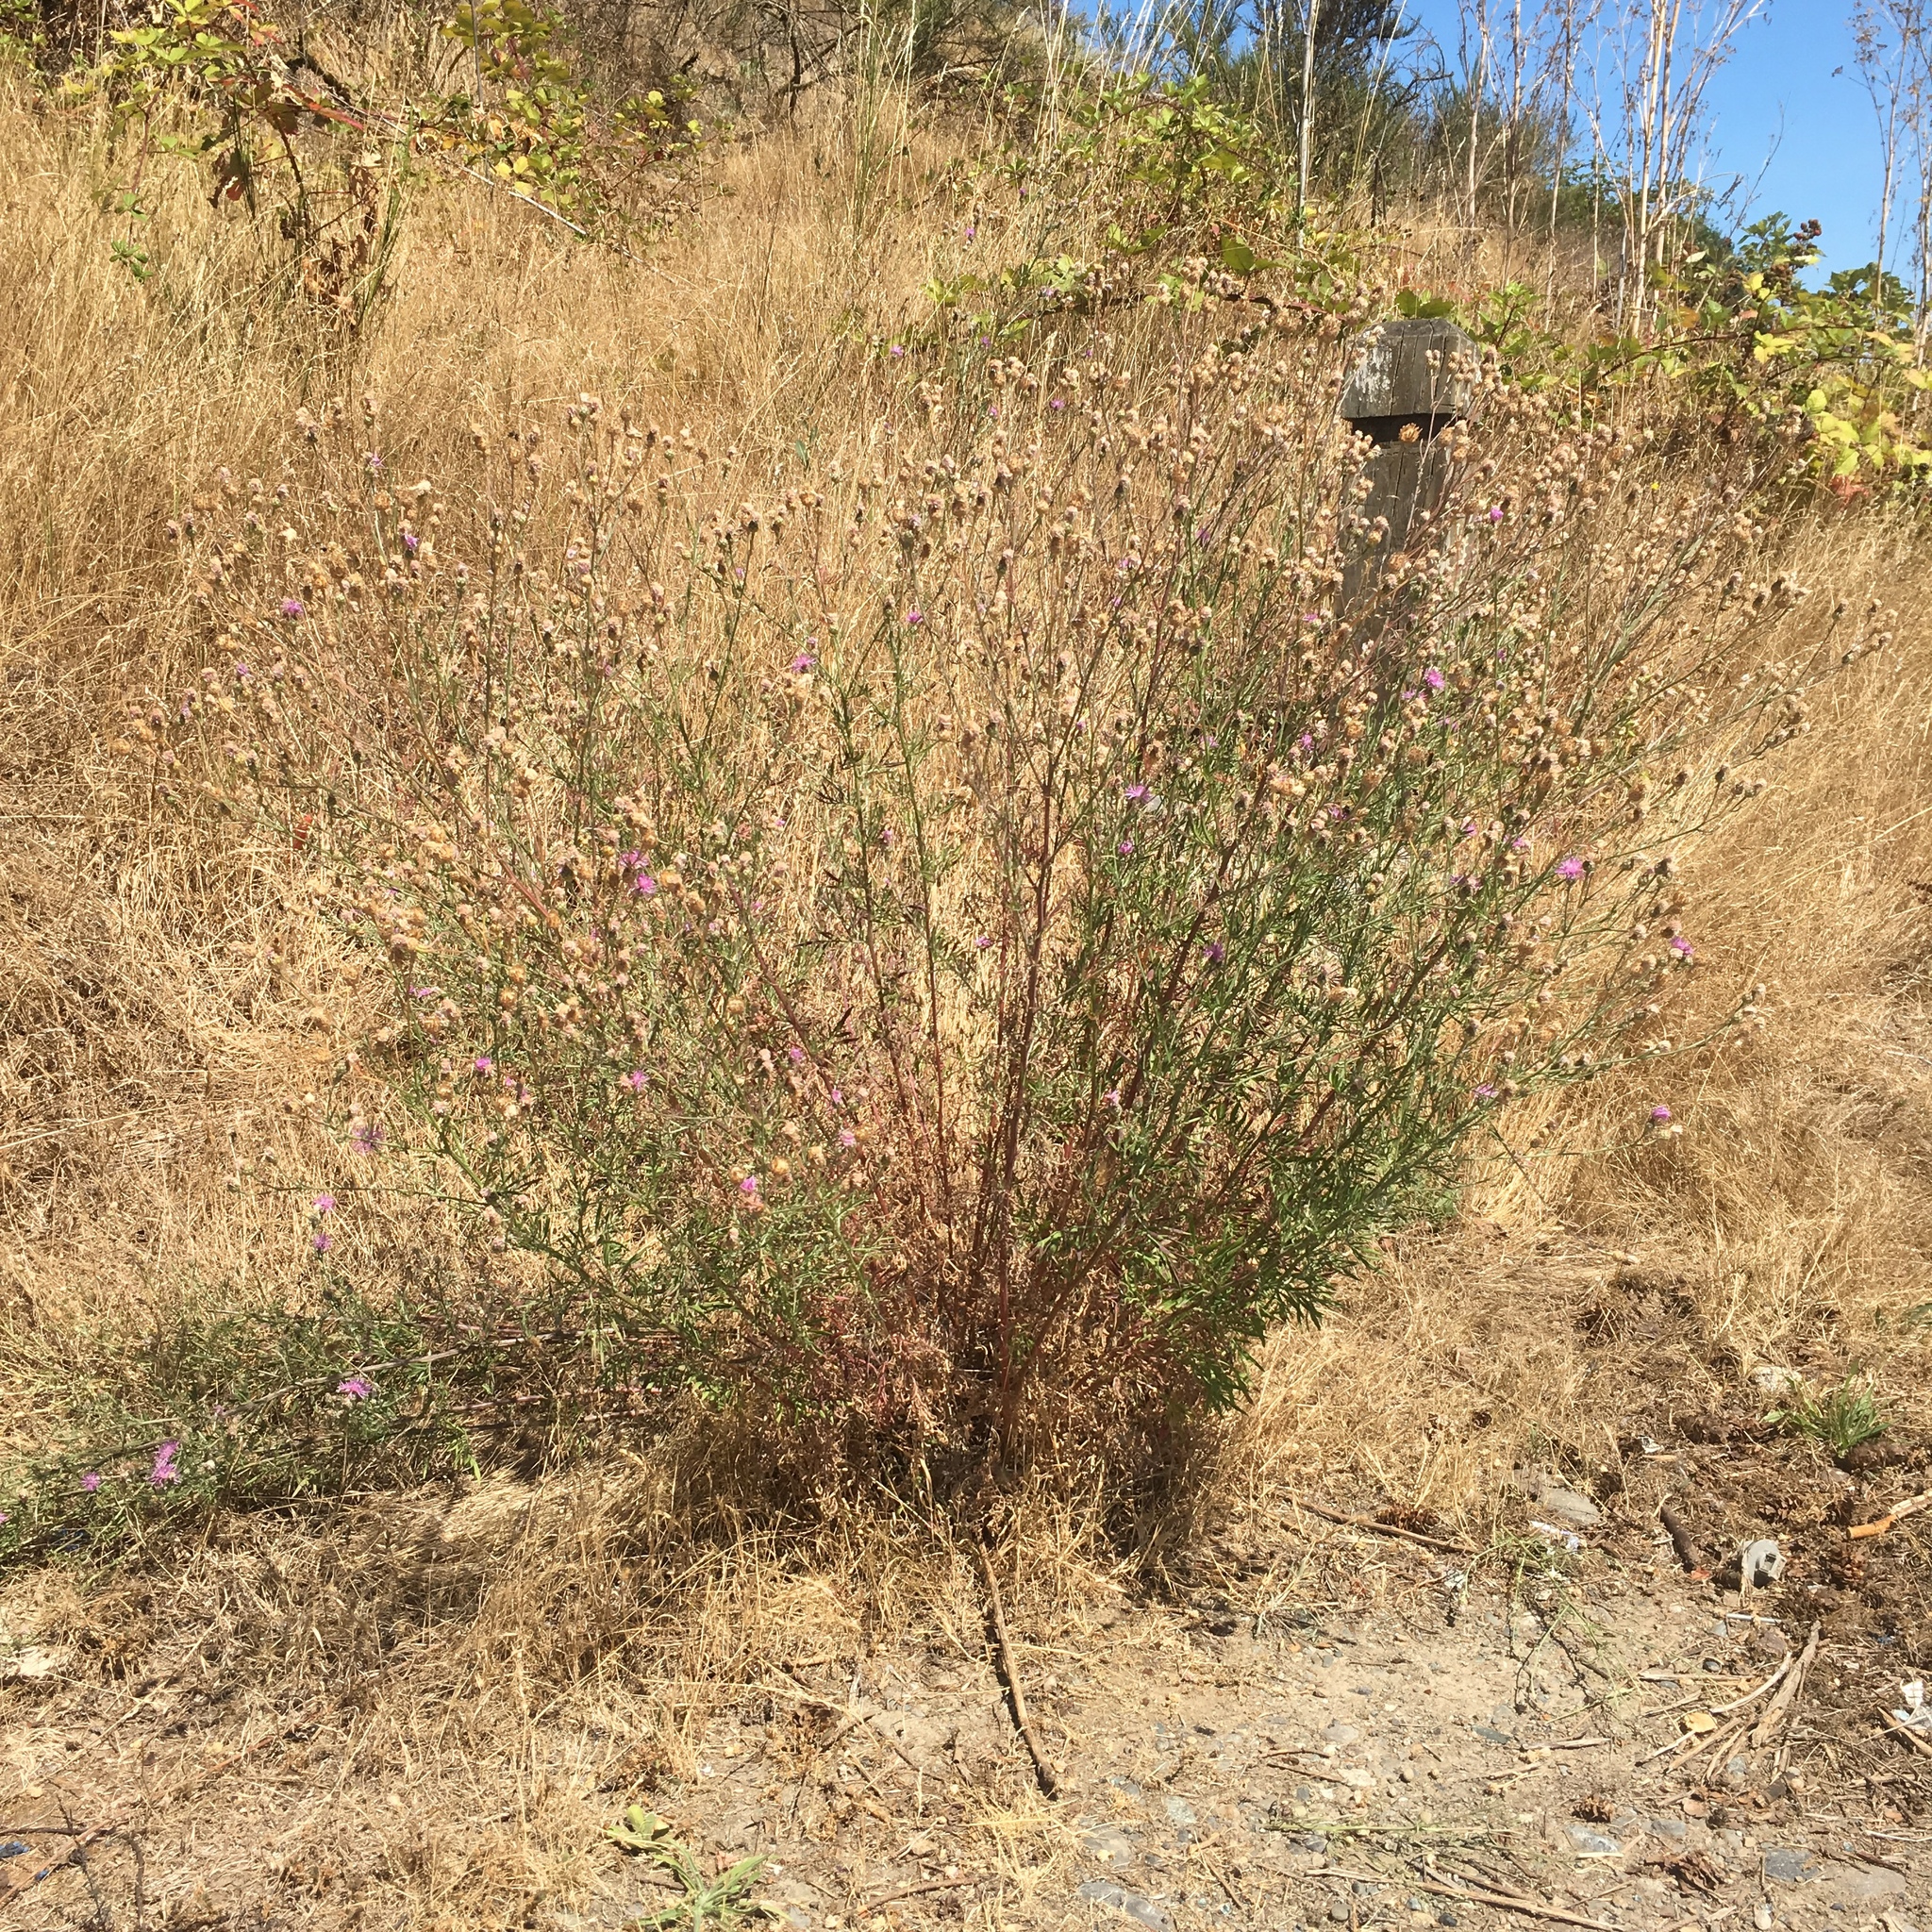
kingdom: Plantae
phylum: Tracheophyta
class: Magnoliopsida
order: Asterales
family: Asteraceae
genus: Centaurea
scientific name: Centaurea australis
